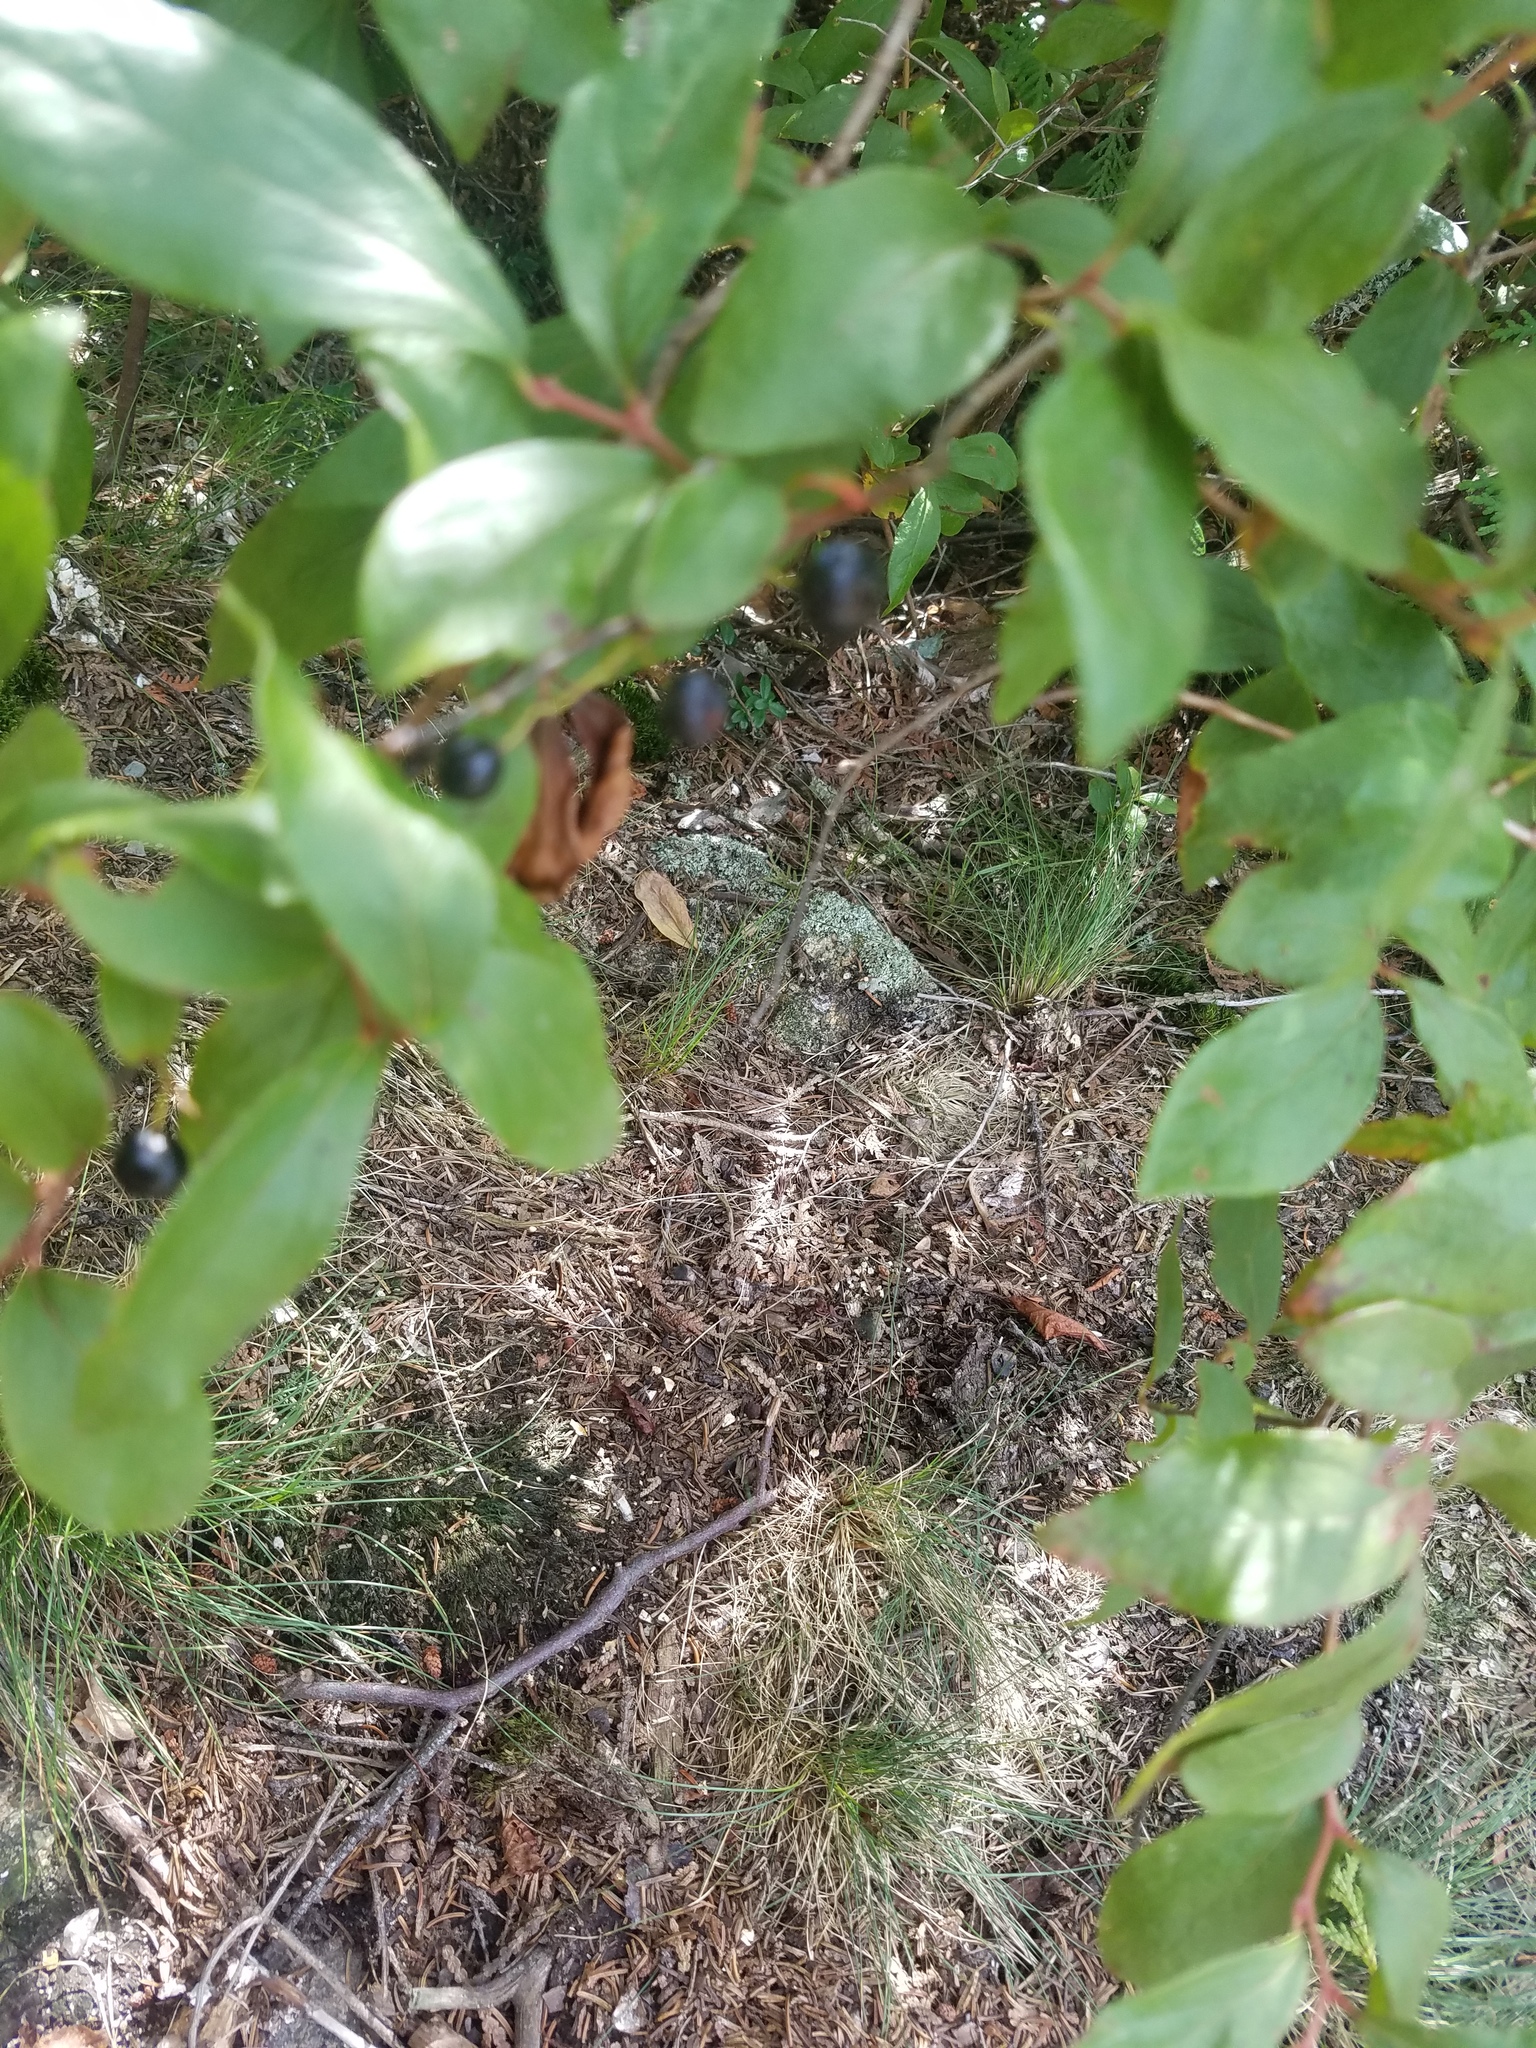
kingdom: Plantae
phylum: Tracheophyta
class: Magnoliopsida
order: Ericales
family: Ericaceae
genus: Gaylussacia
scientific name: Gaylussacia baccata
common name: Black huckleberry
